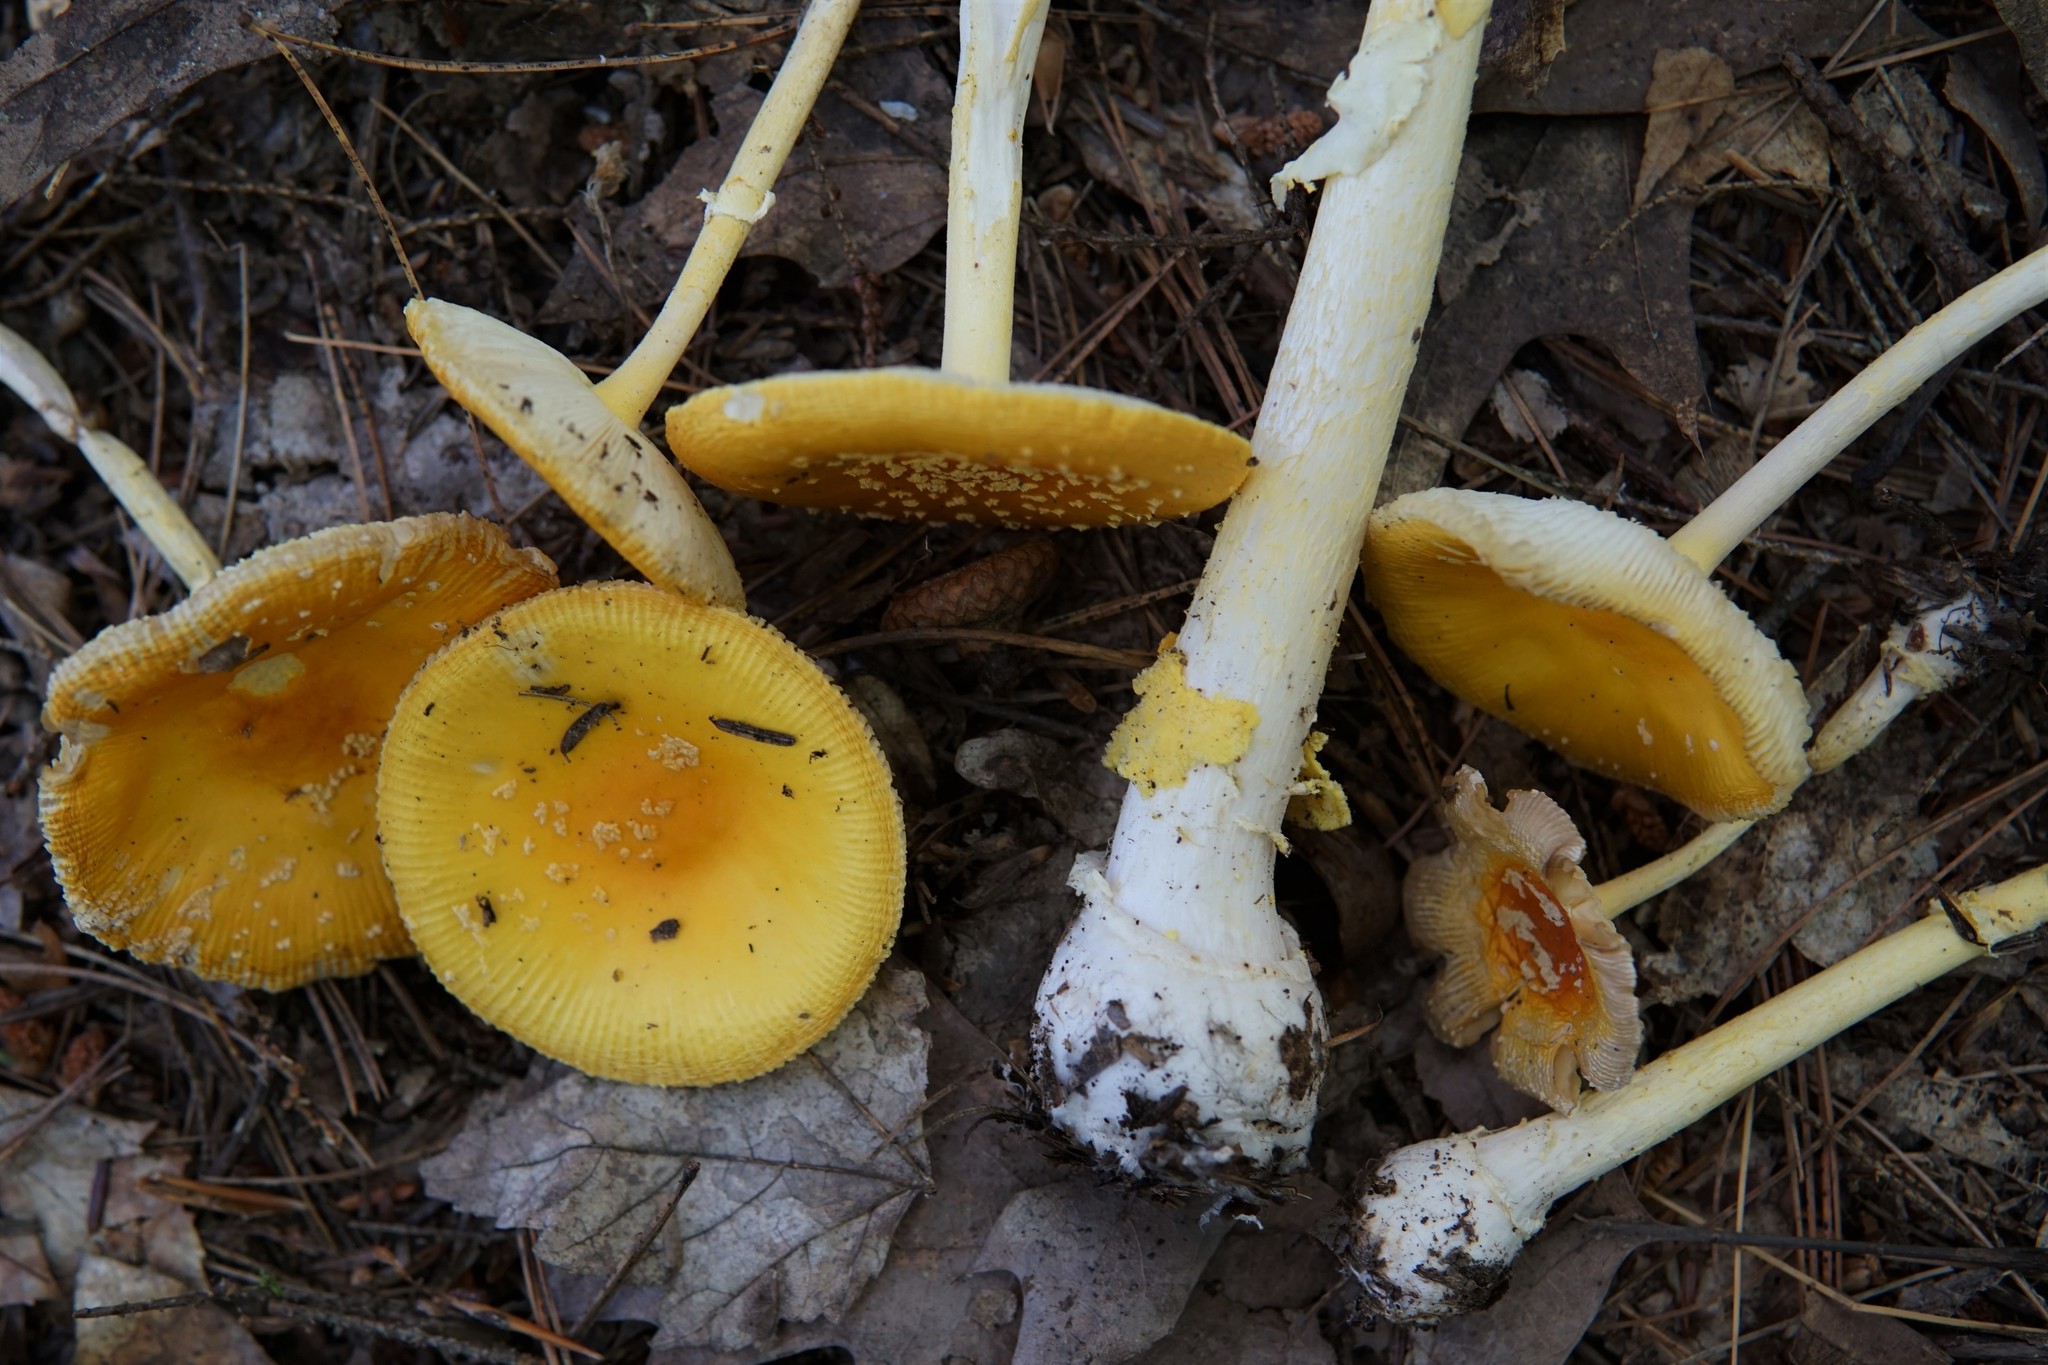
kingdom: Fungi
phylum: Basidiomycota
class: Agaricomycetes
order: Agaricales
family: Amanitaceae
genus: Amanita
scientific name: Amanita frostiana
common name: Frost's amanita
